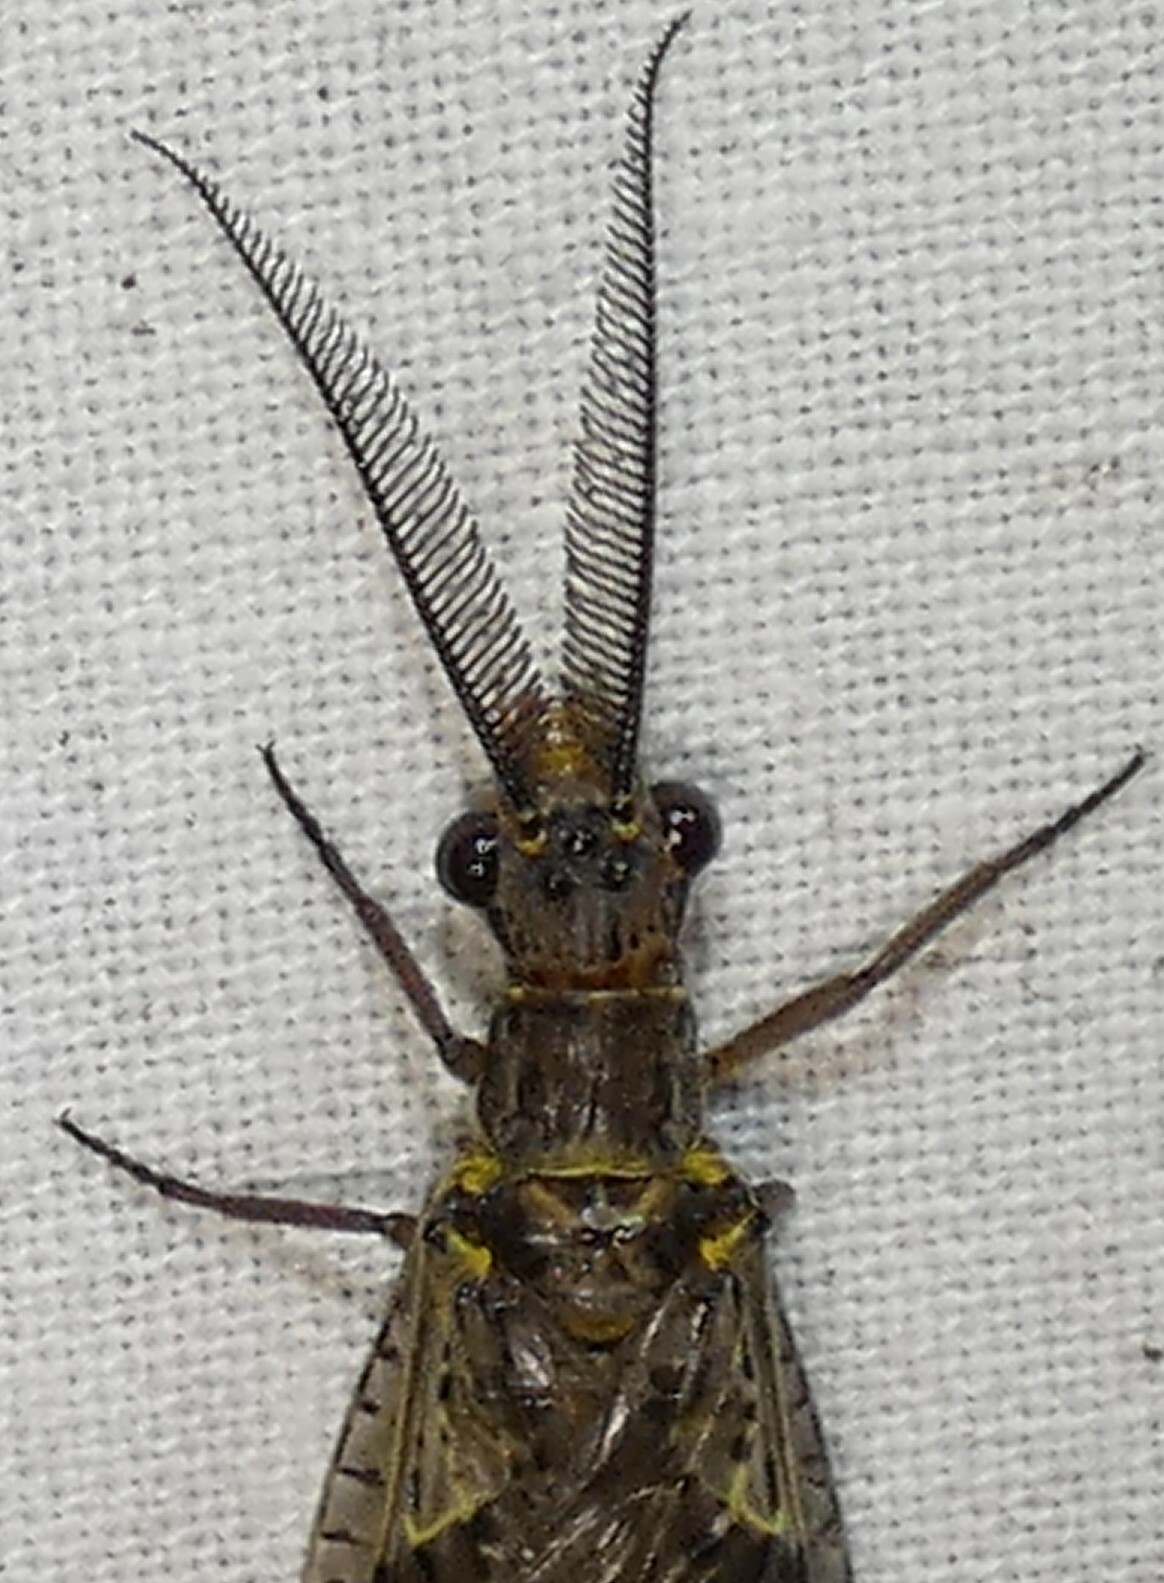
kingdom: Animalia
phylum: Arthropoda
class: Insecta
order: Megaloptera
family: Corydalidae
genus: Chauliodes
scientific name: Chauliodes rastricornis
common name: Spring fishfly
